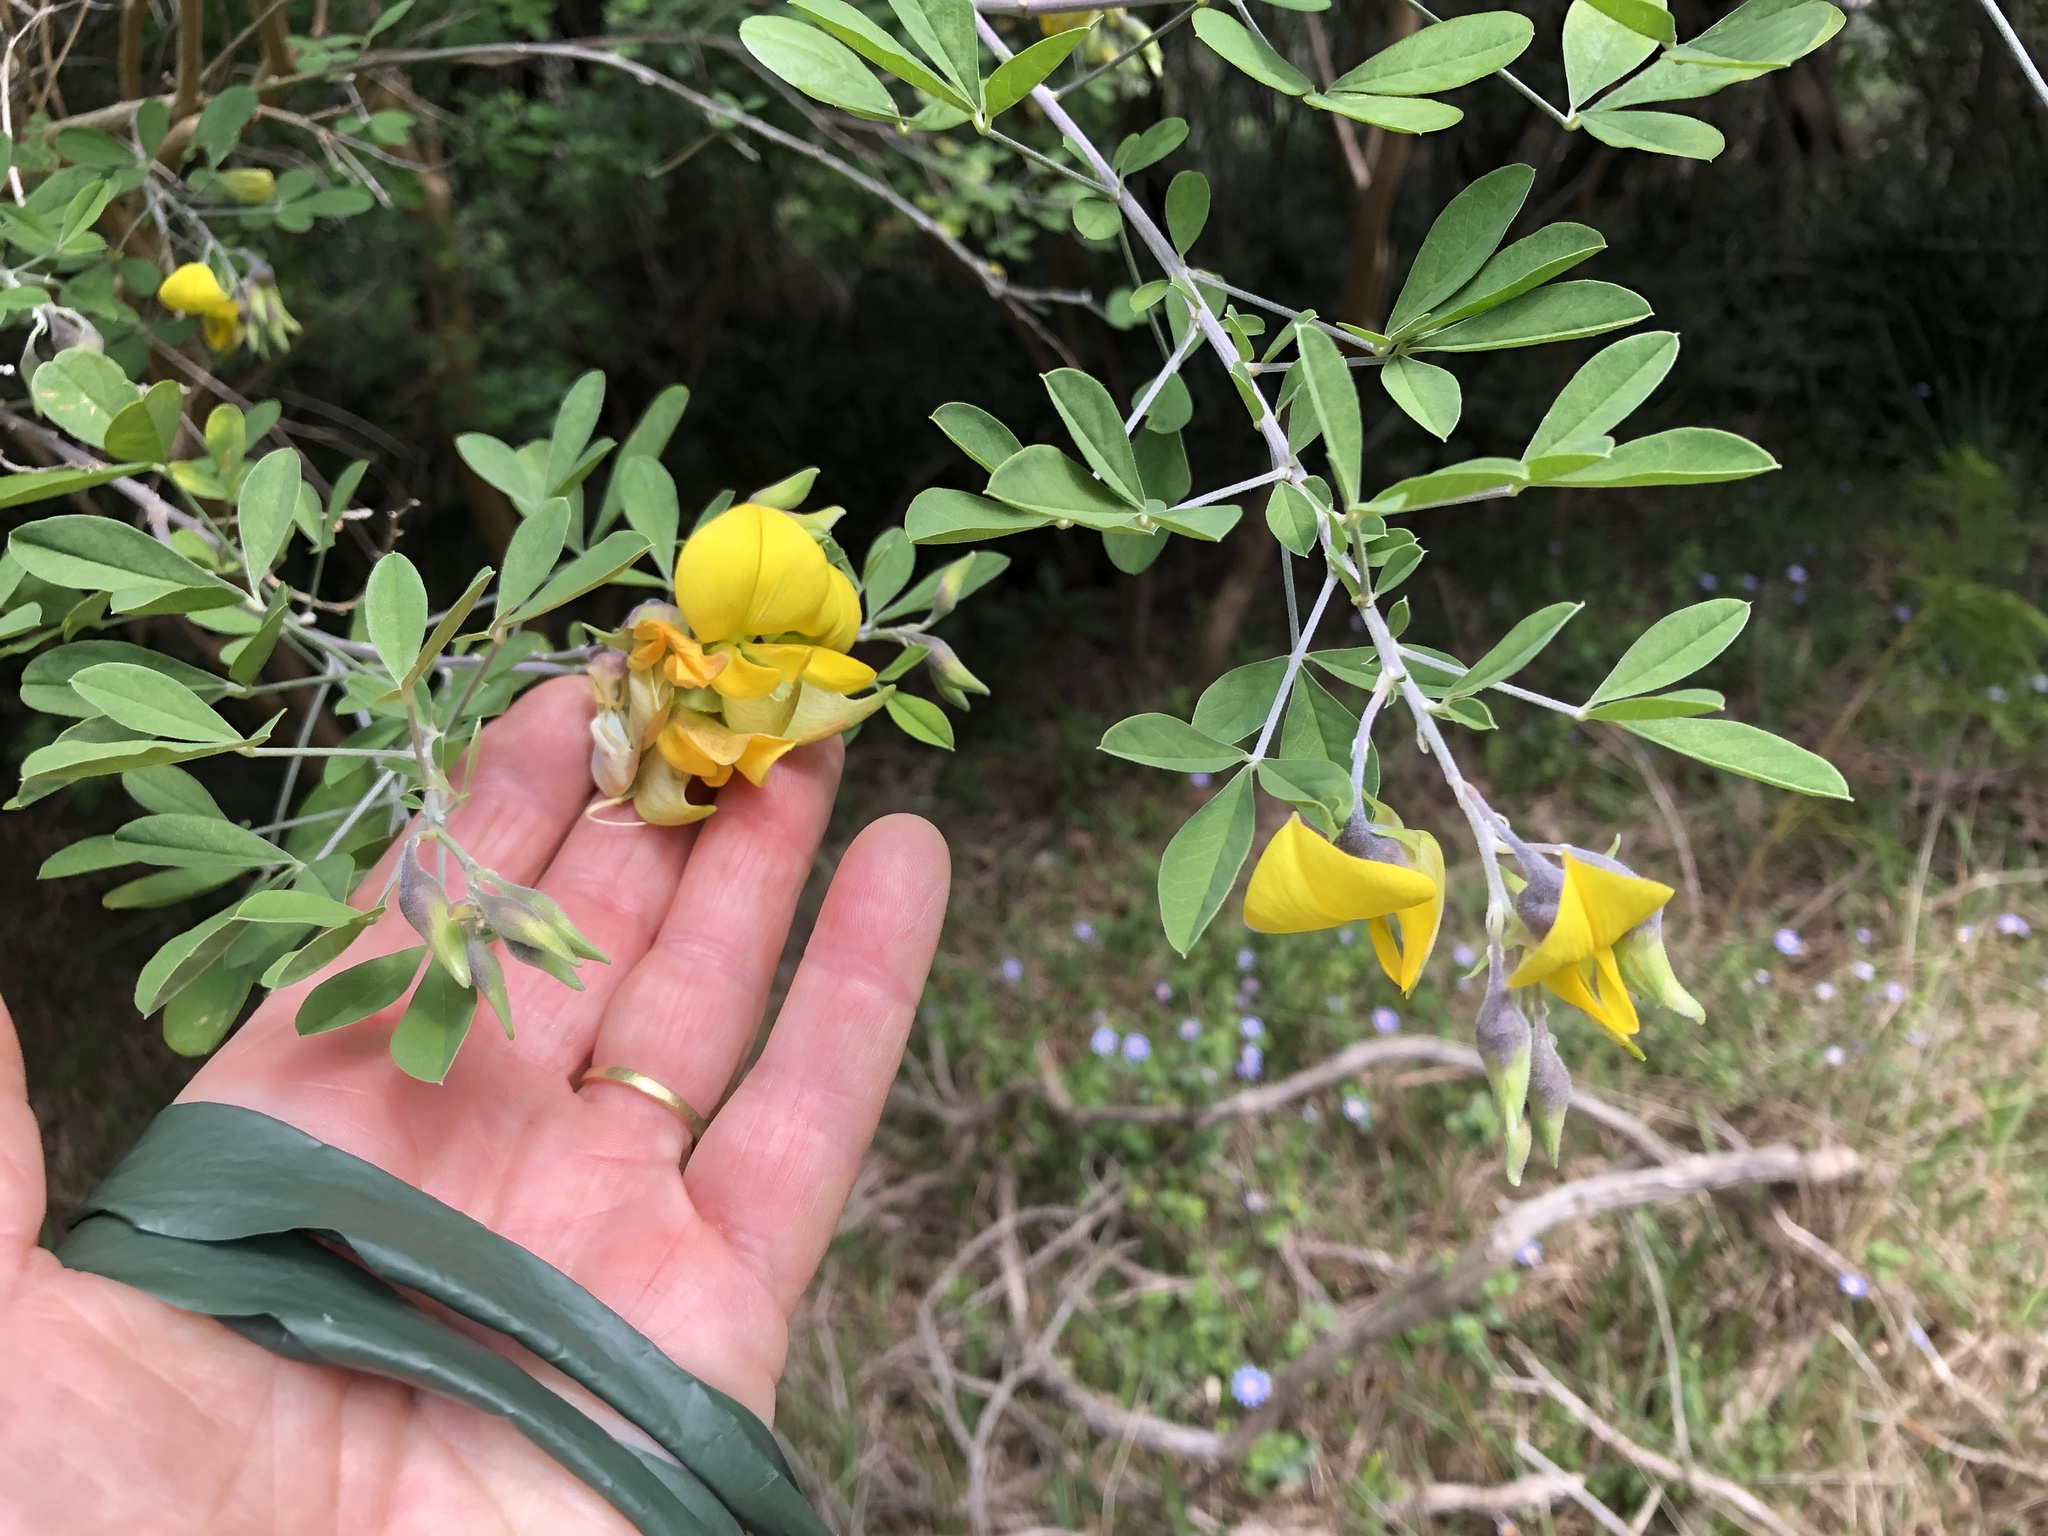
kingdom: Plantae
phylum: Tracheophyta
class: Magnoliopsida
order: Fabales
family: Fabaceae
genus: Crotalaria
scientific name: Crotalaria capensis
